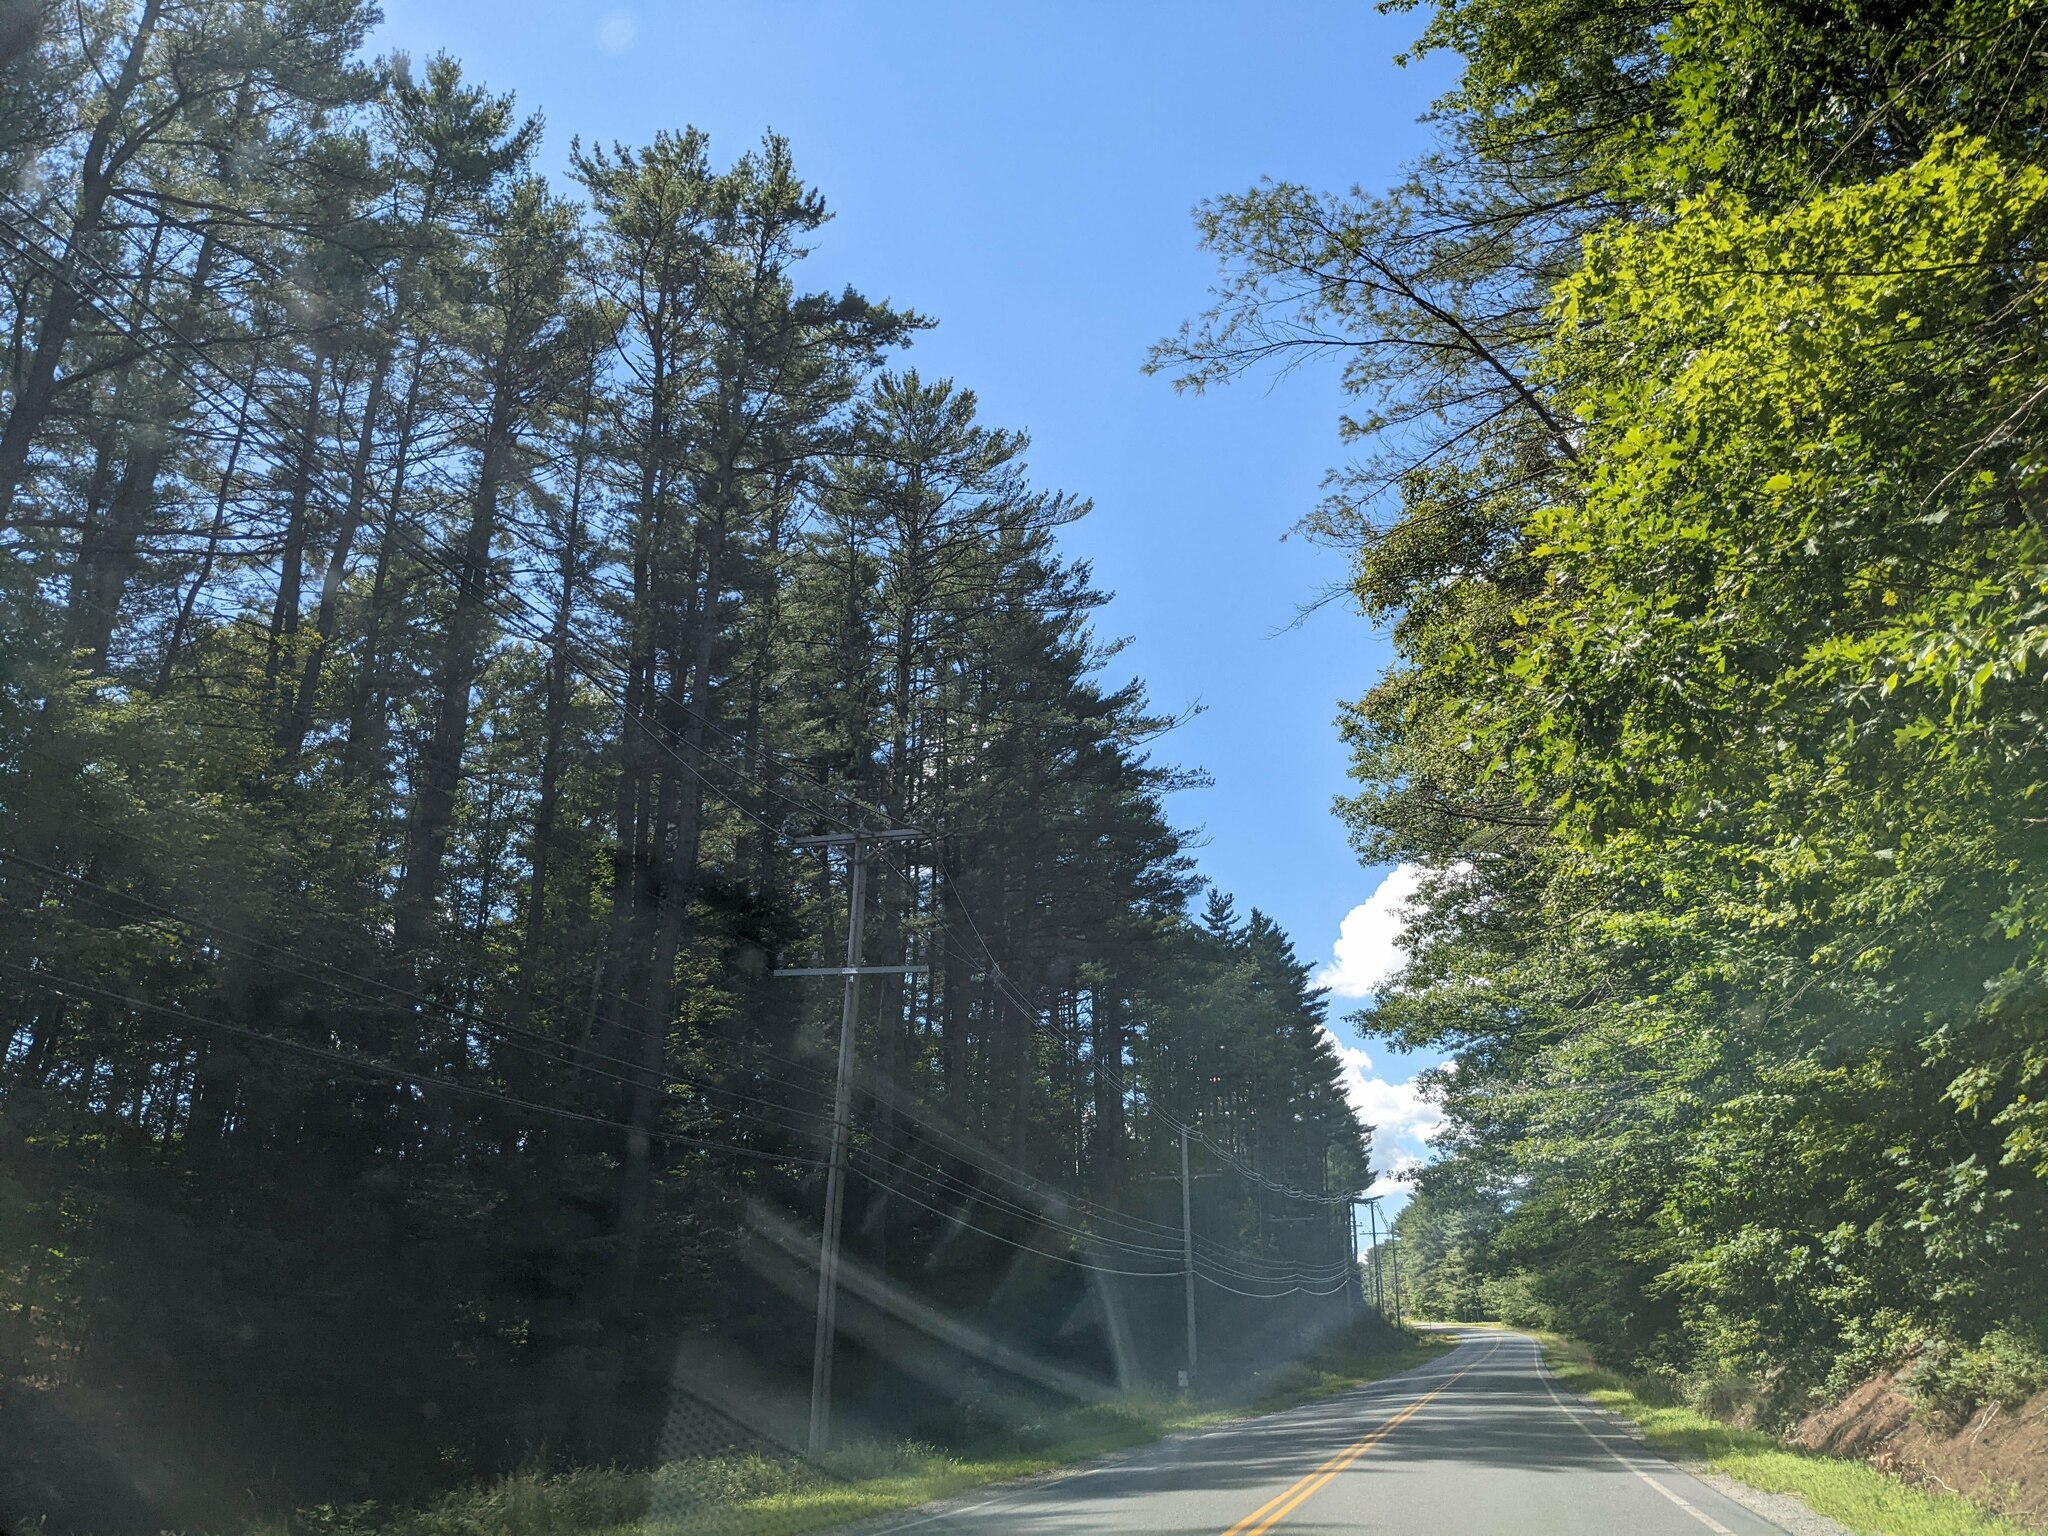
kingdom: Plantae
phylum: Tracheophyta
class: Pinopsida
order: Pinales
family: Pinaceae
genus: Pinus
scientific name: Pinus strobus
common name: Weymouth pine
